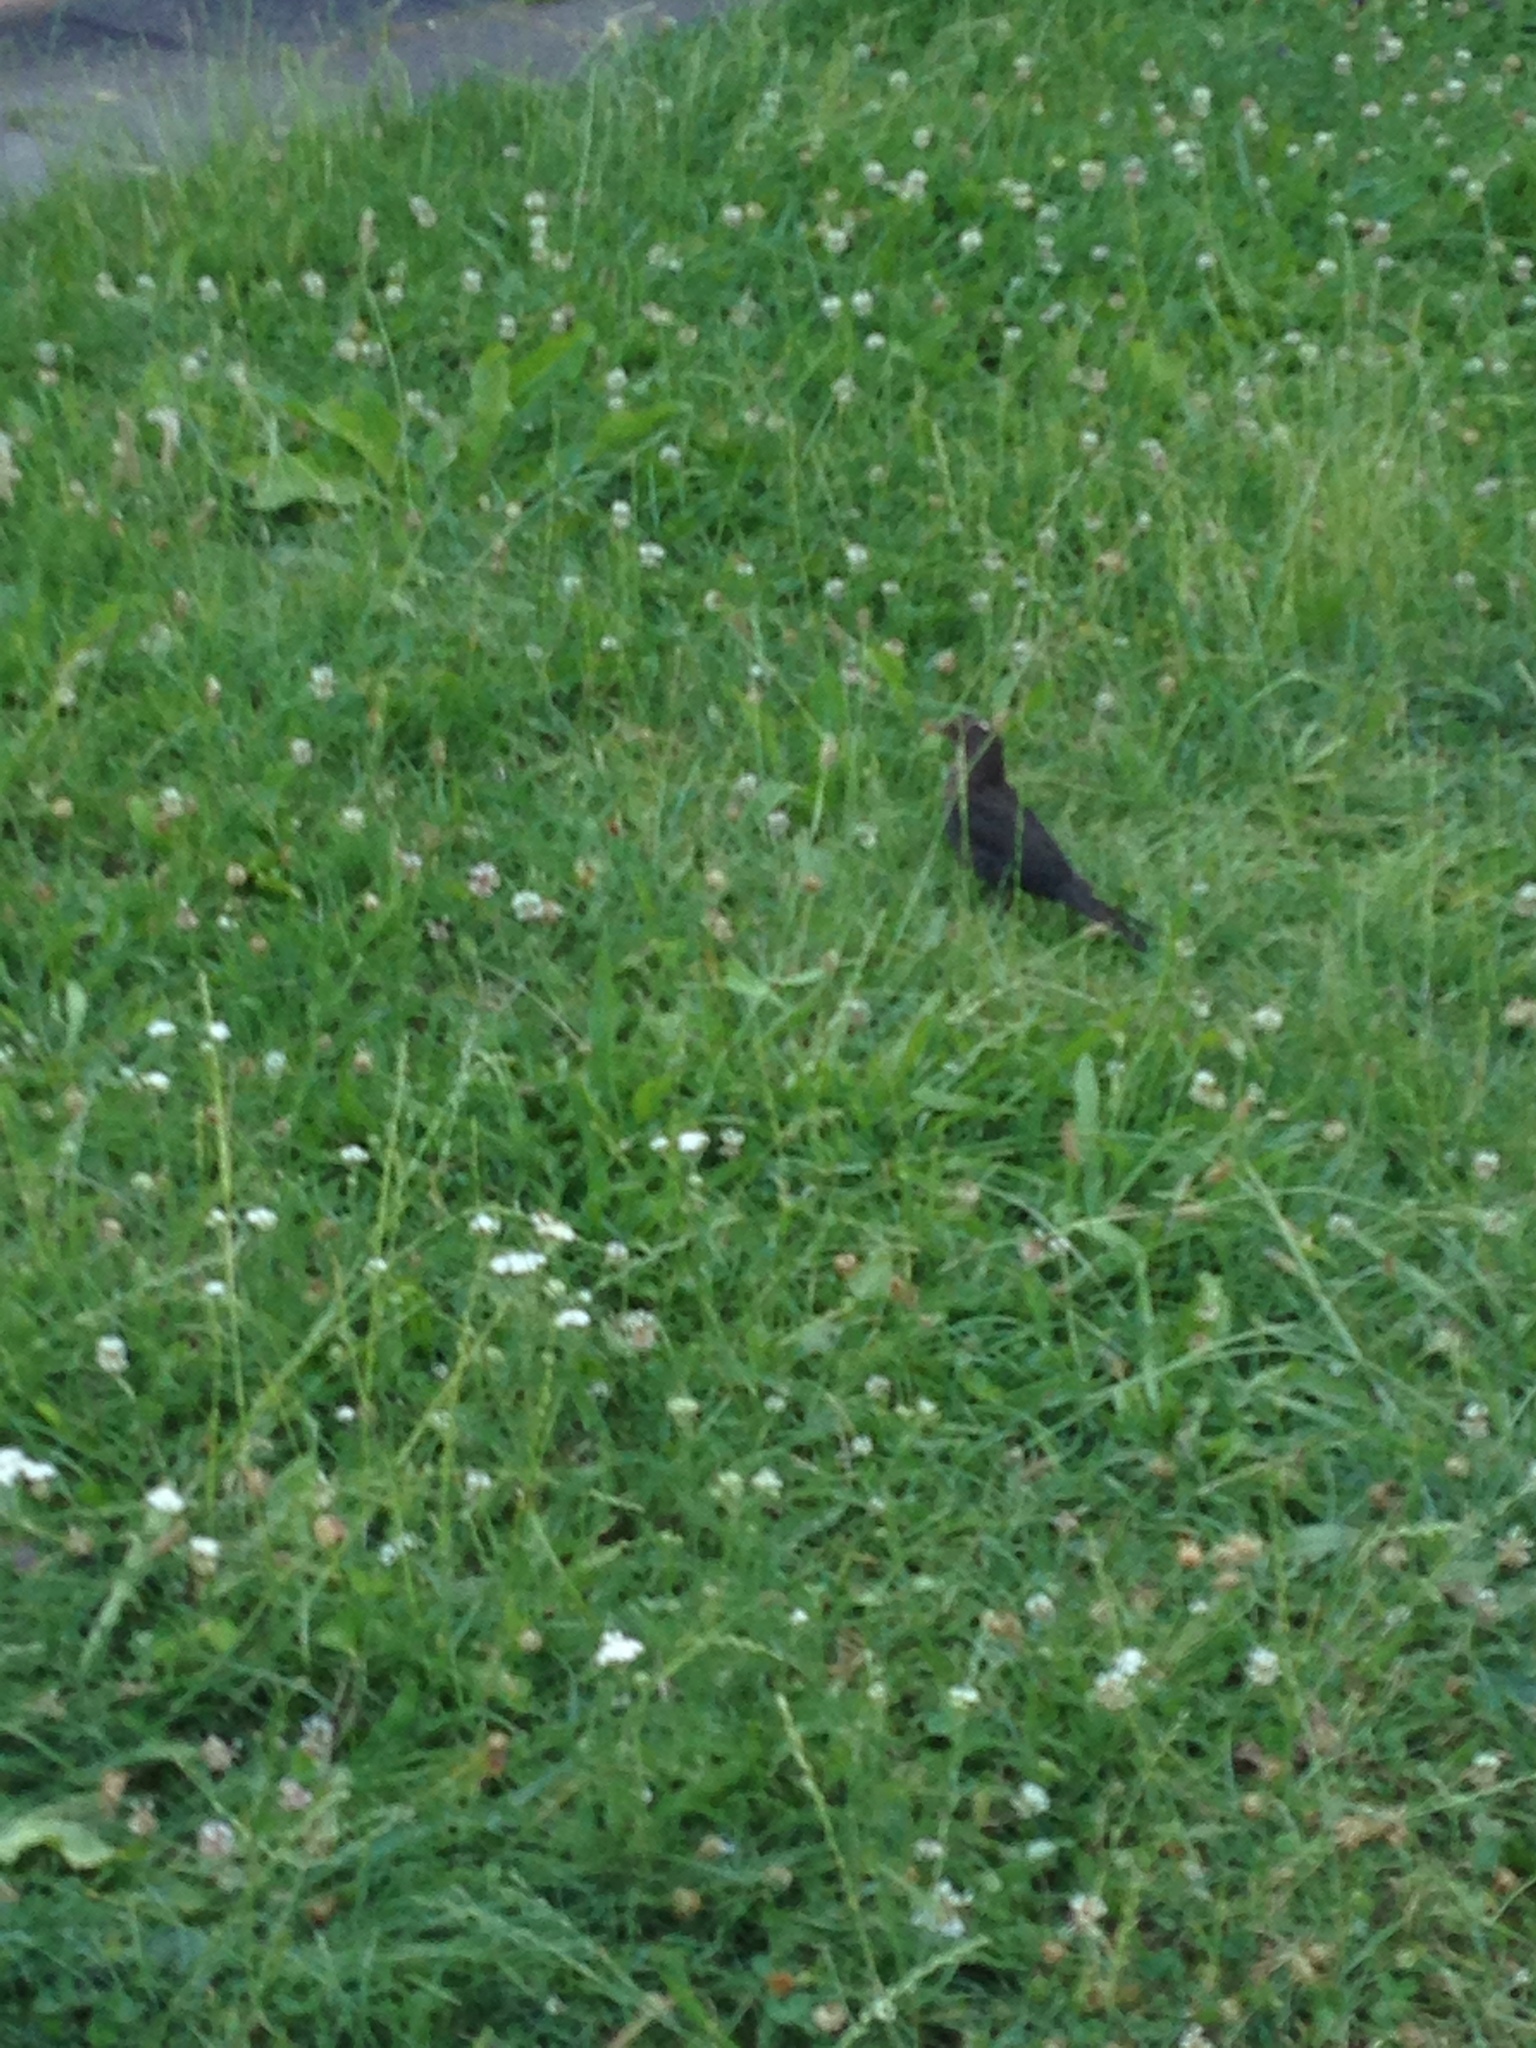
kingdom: Animalia
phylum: Chordata
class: Aves
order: Passeriformes
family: Turdidae
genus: Turdus
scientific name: Turdus merula
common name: Common blackbird
